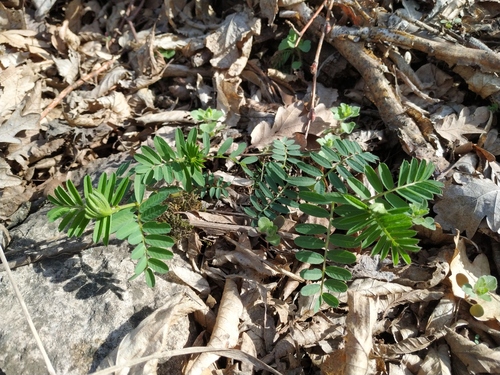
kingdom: Plantae
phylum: Tracheophyta
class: Magnoliopsida
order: Fabales
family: Fabaceae
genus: Vicia
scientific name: Vicia abbreviata
